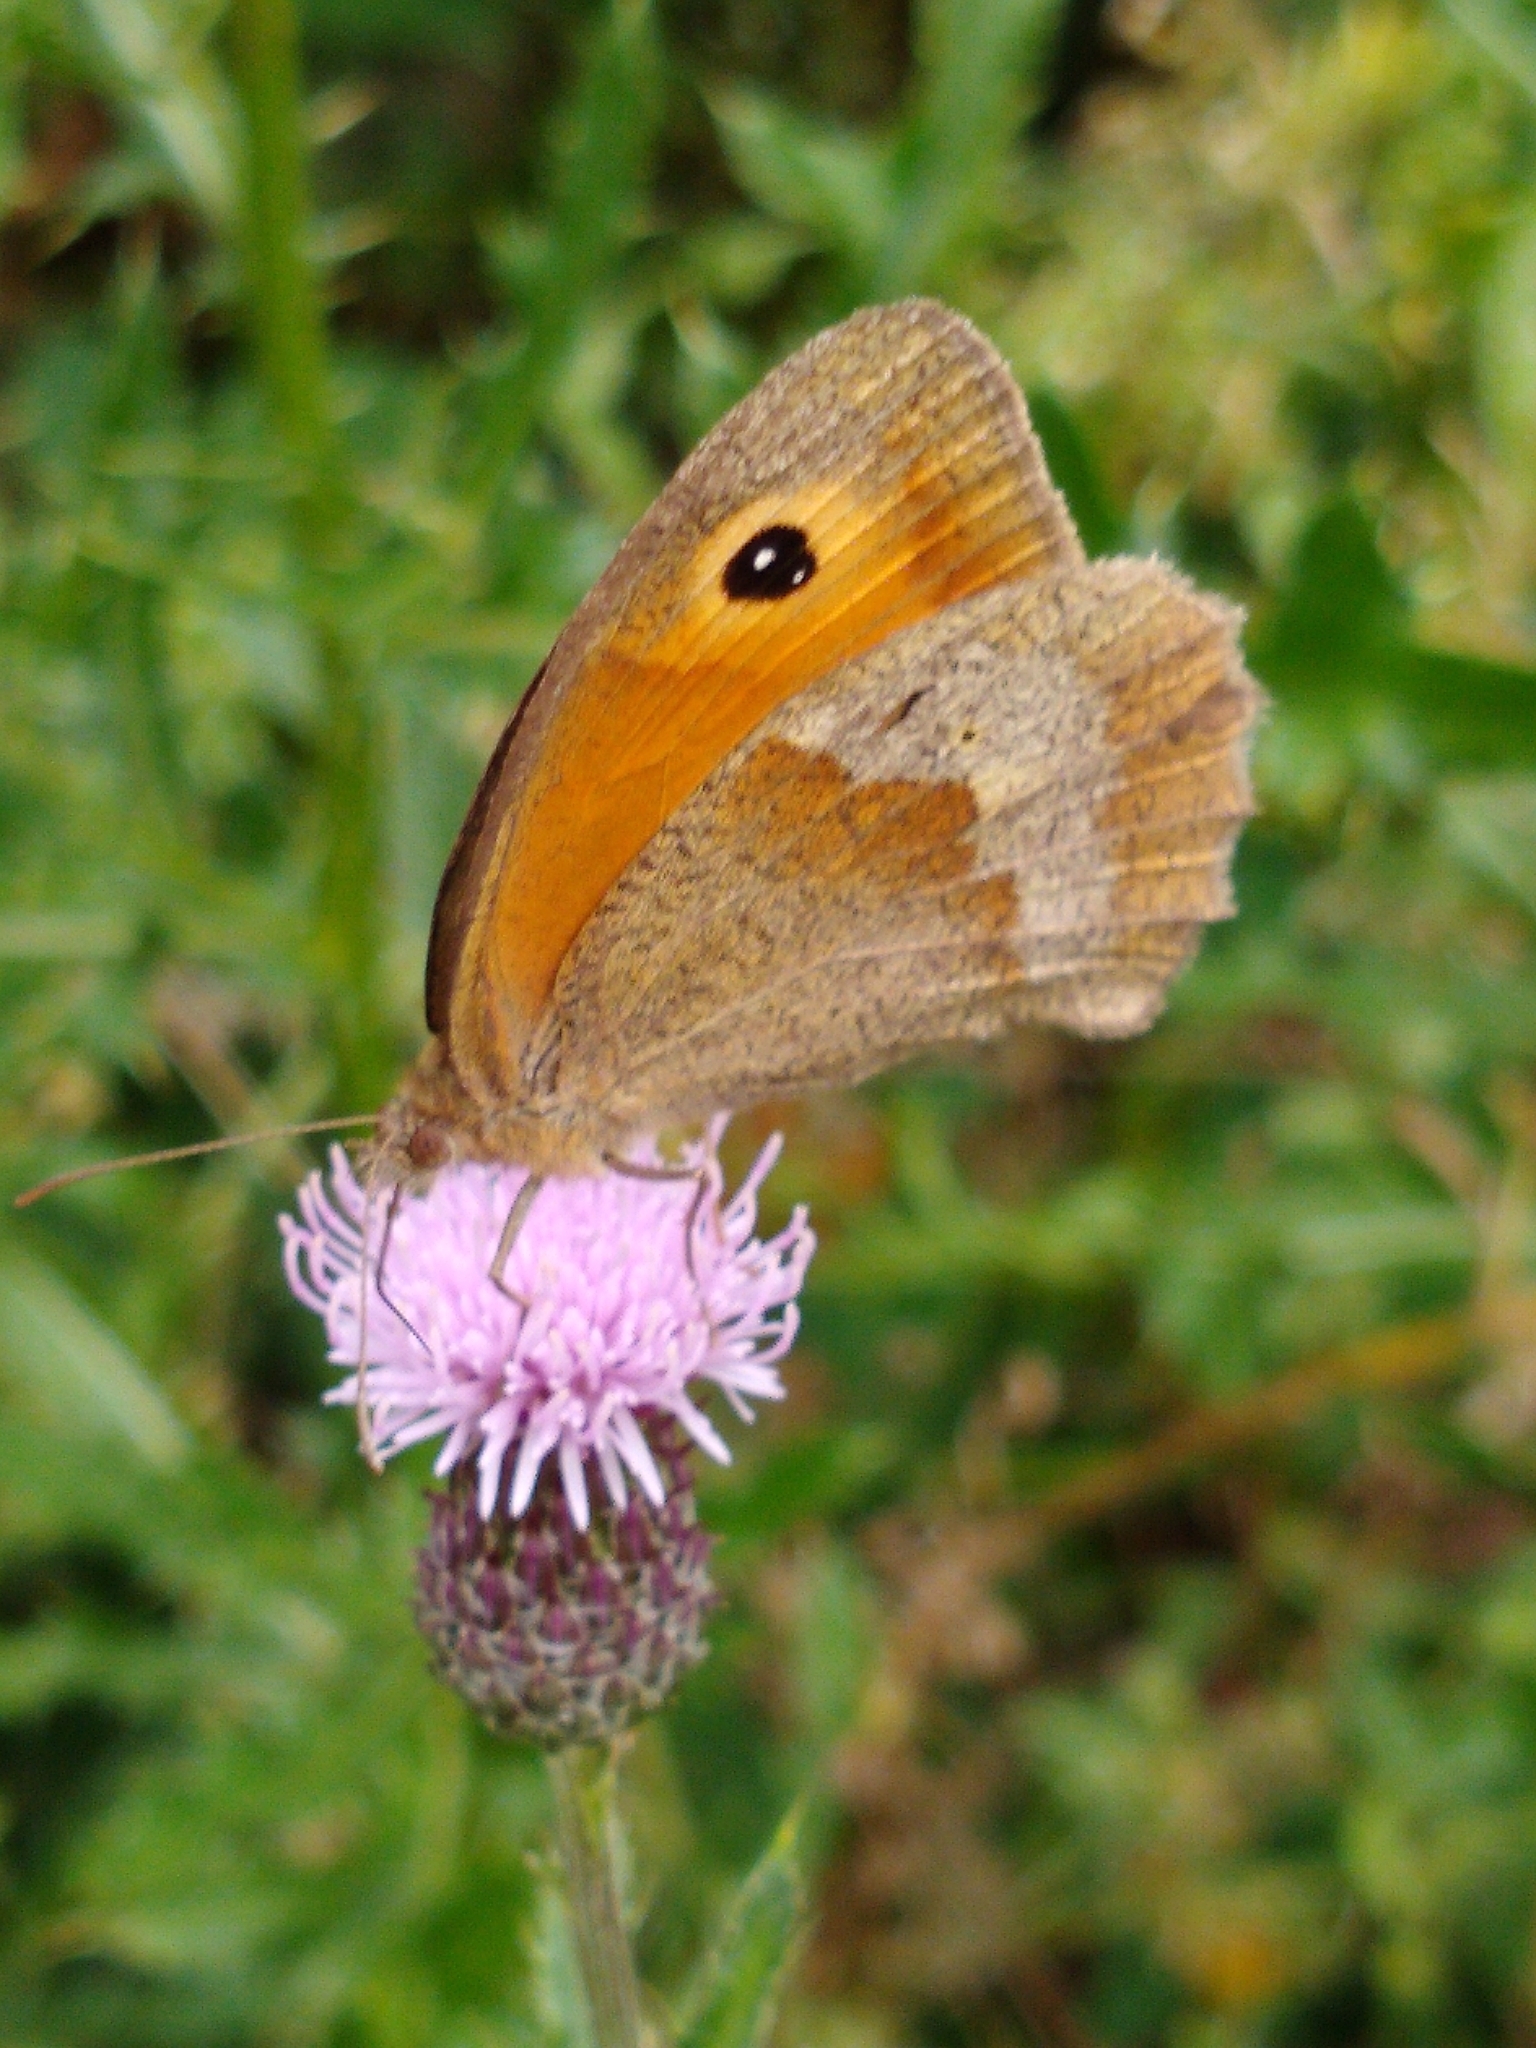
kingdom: Animalia
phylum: Arthropoda
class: Insecta
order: Lepidoptera
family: Nymphalidae
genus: Maniola
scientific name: Maniola jurtina
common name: Meadow brown
